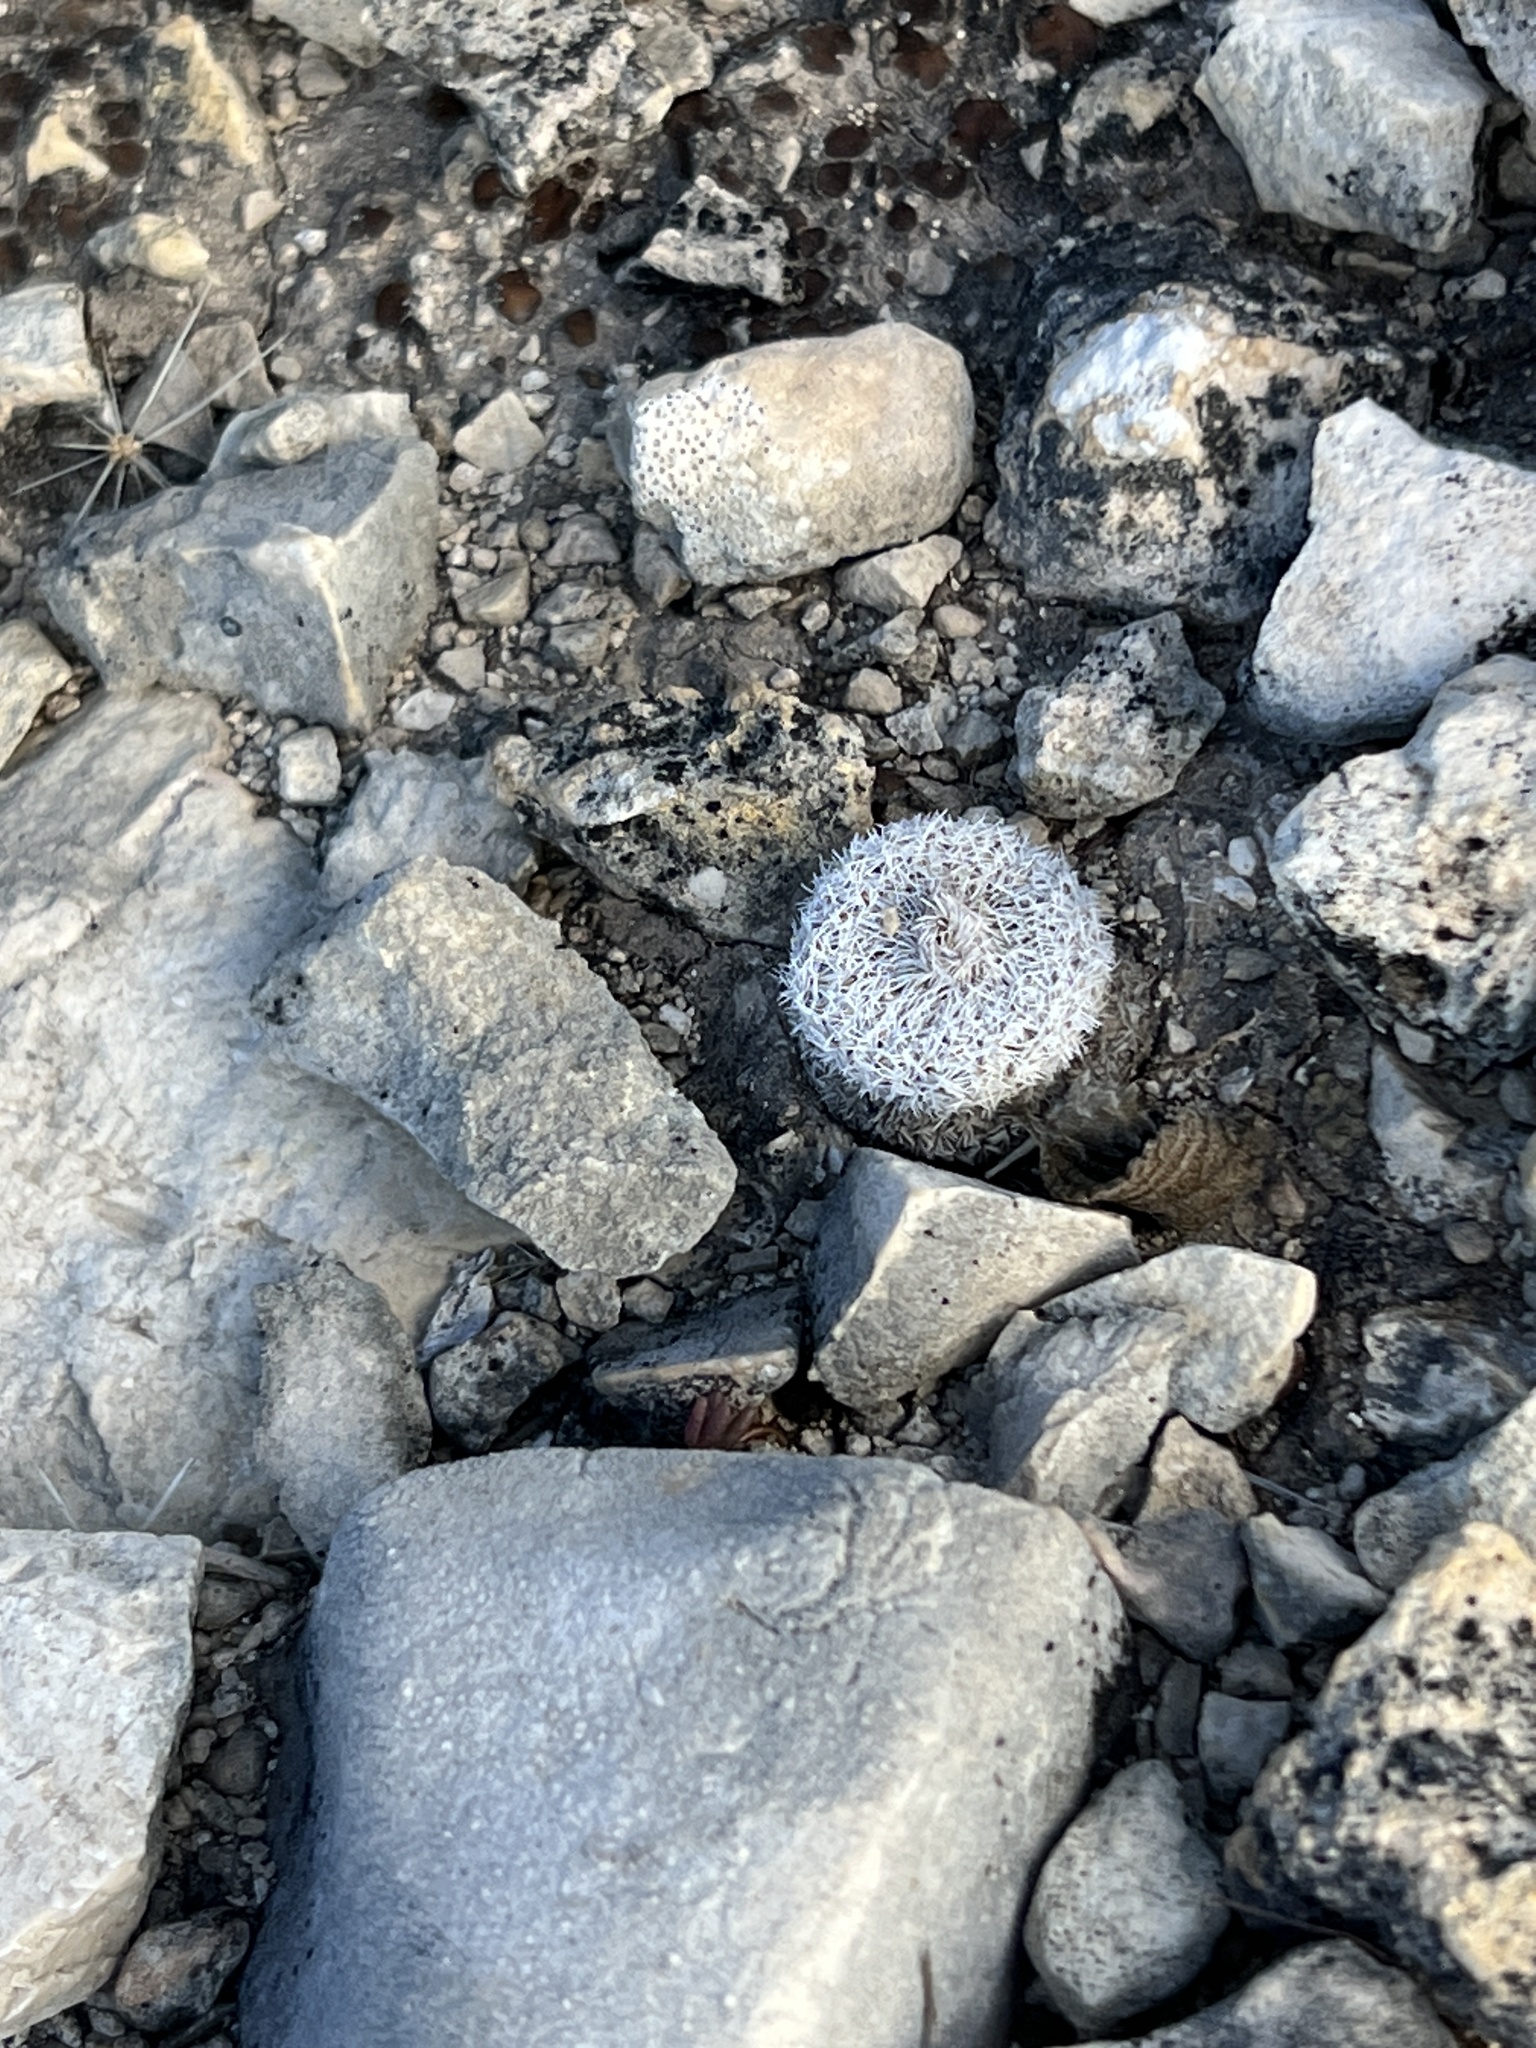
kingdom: Plantae
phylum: Tracheophyta
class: Magnoliopsida
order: Caryophyllales
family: Cactaceae
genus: Epithelantha
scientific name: Epithelantha micromeris
